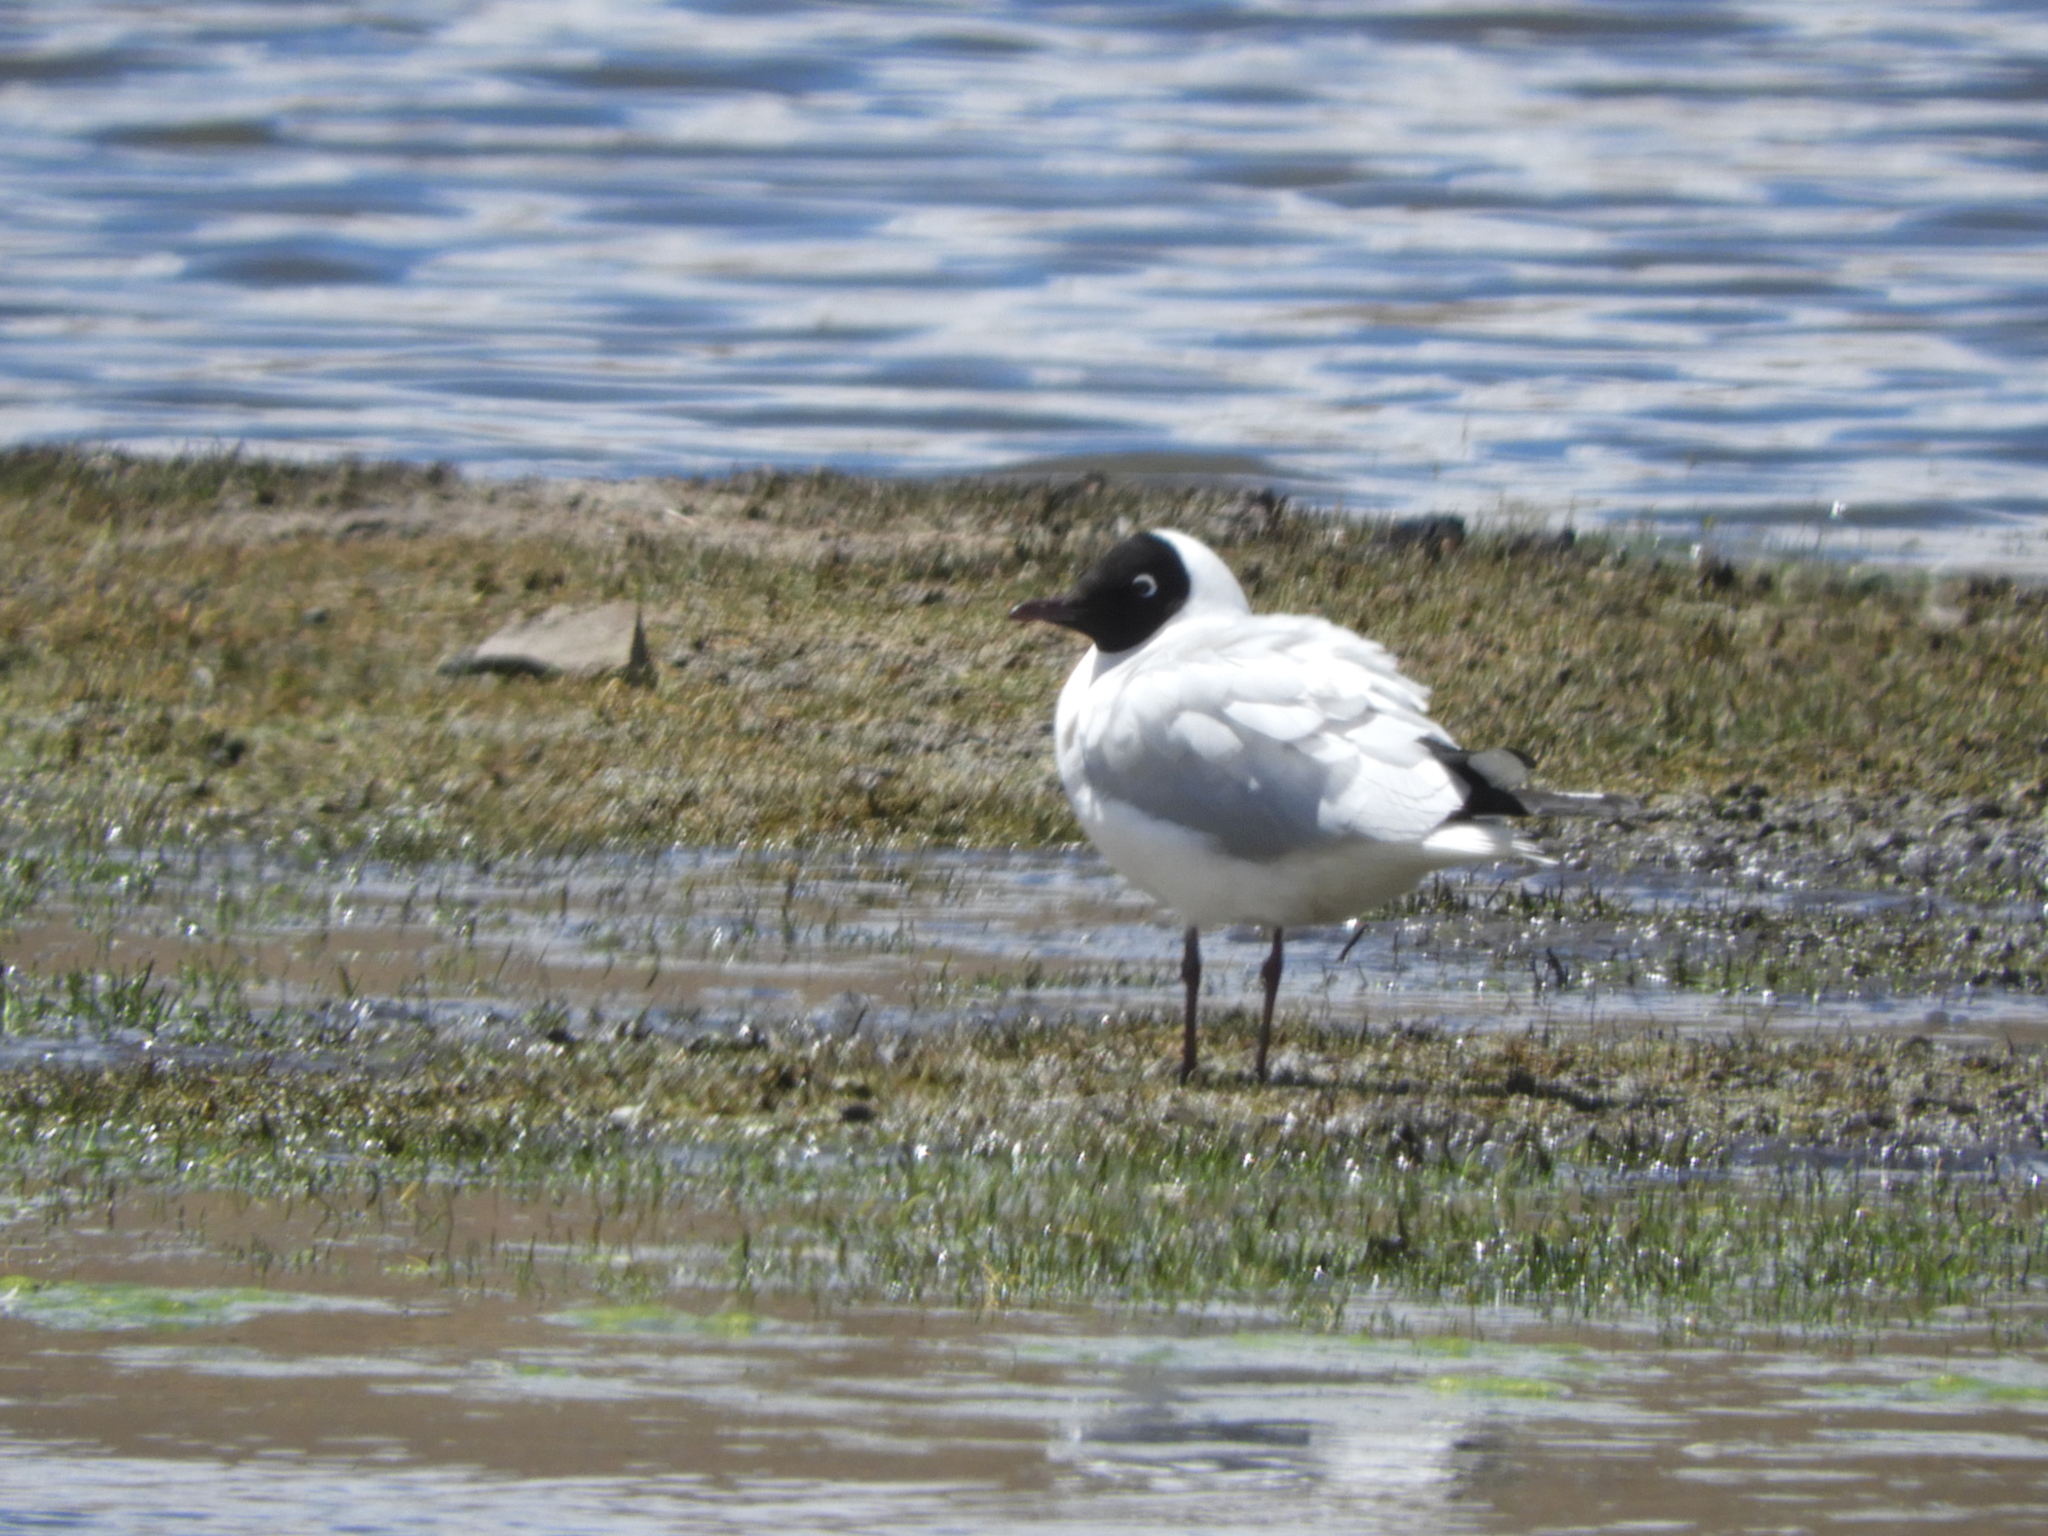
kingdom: Animalia
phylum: Chordata
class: Aves
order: Charadriiformes
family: Laridae
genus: Chroicocephalus
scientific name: Chroicocephalus serranus
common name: Andean gull
